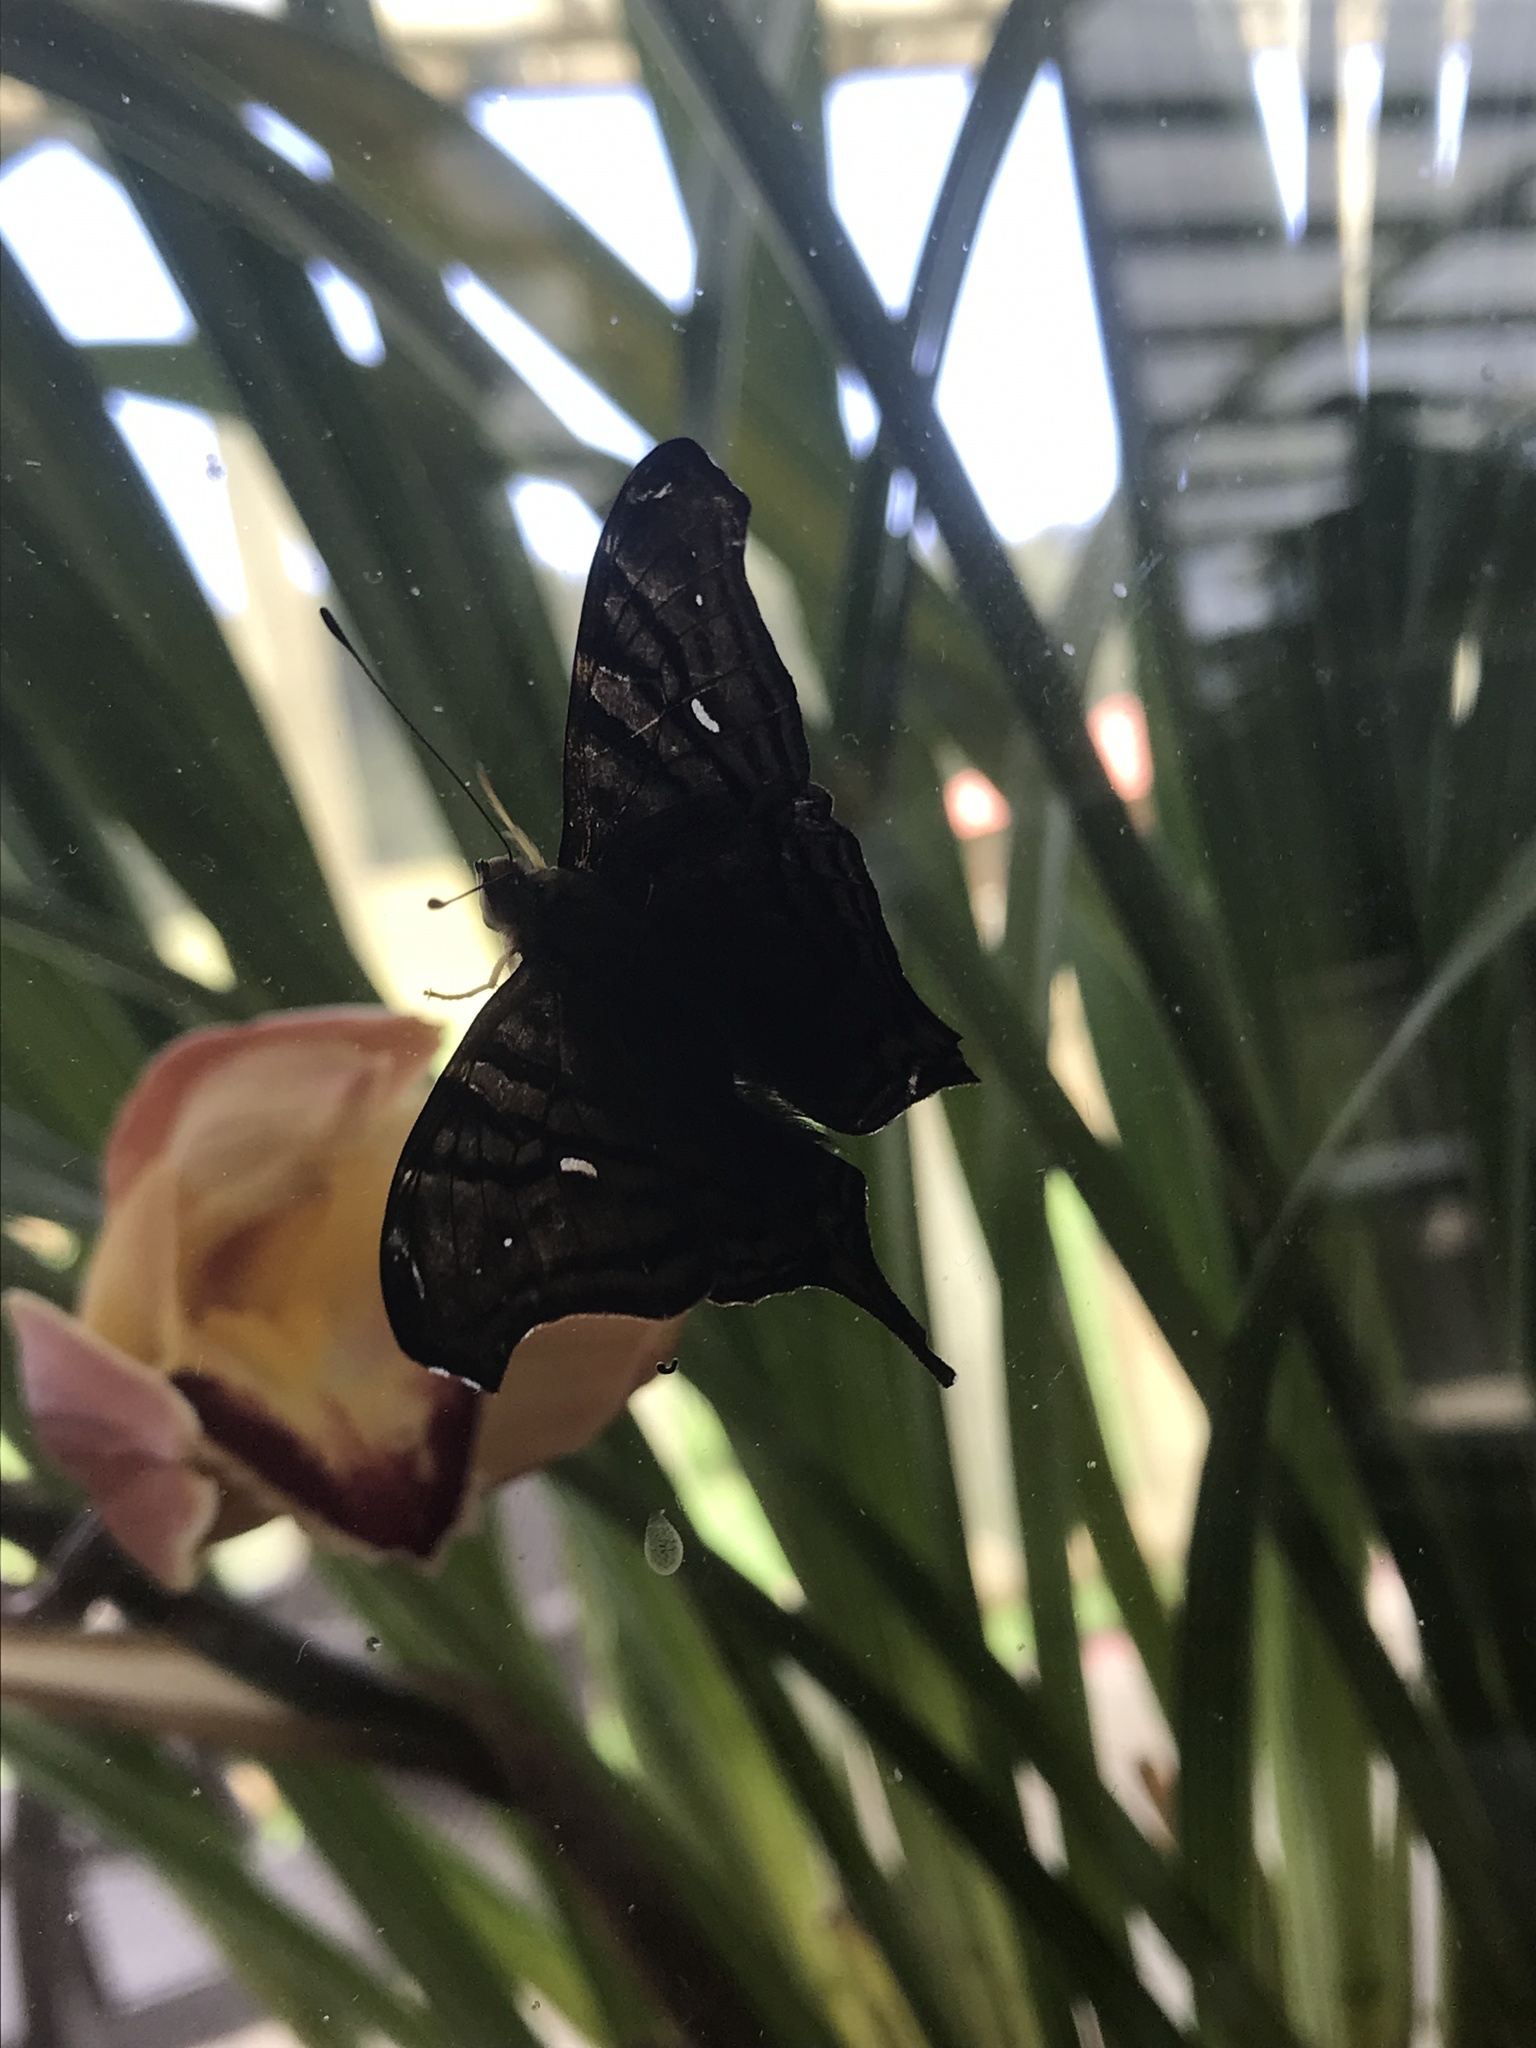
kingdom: Animalia
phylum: Arthropoda
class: Insecta
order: Lepidoptera
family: Nymphalidae
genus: Hypanartia
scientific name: Hypanartia dione
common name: Banded mapwing
